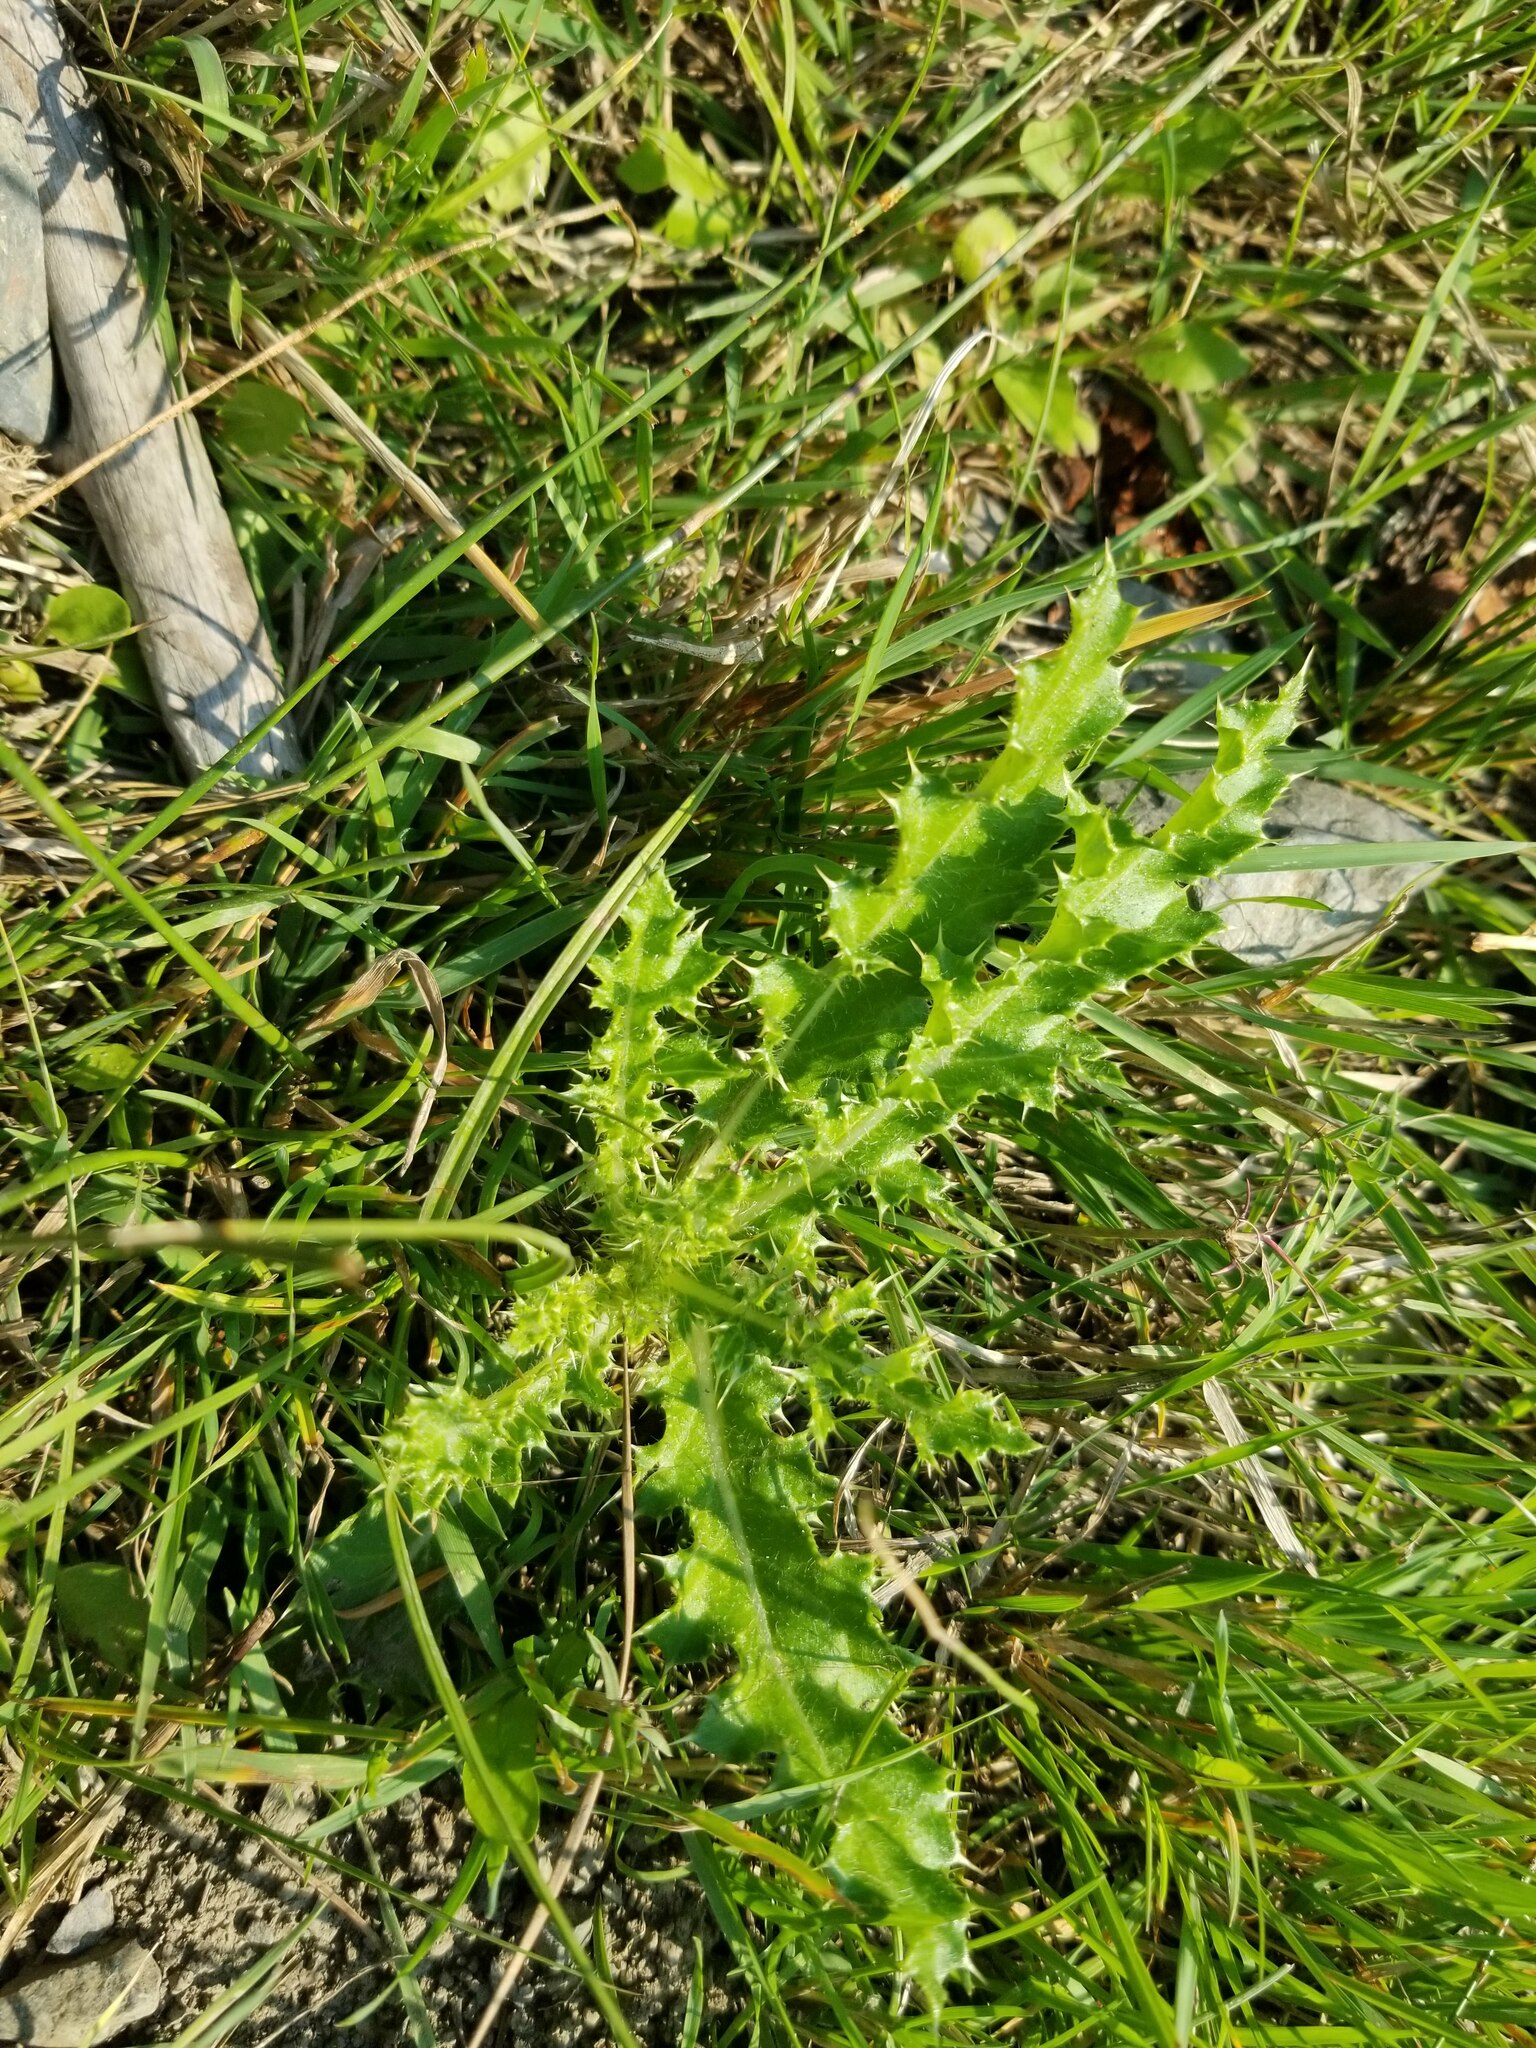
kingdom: Plantae
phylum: Tracheophyta
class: Magnoliopsida
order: Asterales
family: Asteraceae
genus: Cirsium
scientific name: Cirsium arvense
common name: Creeping thistle
